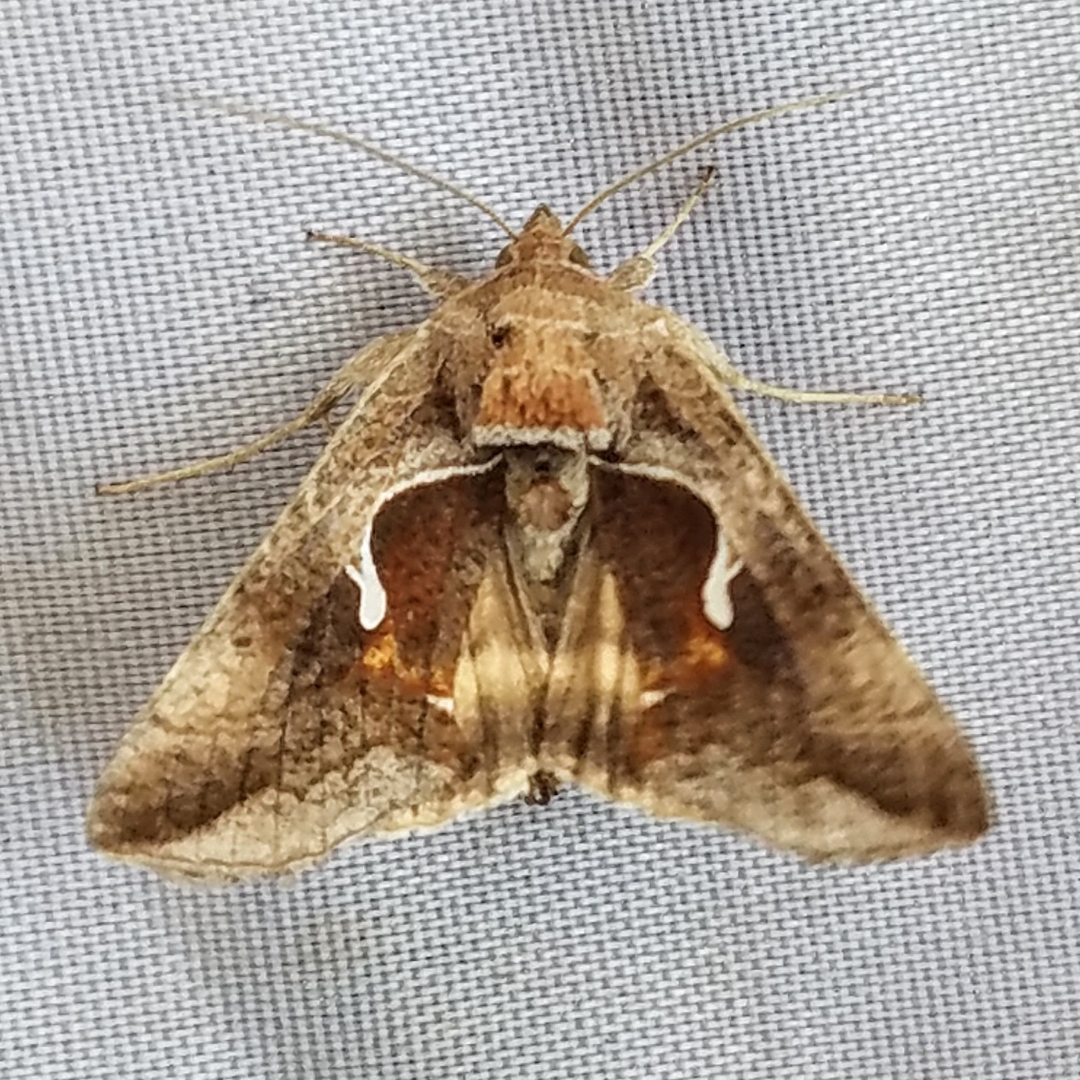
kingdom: Animalia
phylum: Arthropoda
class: Insecta
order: Lepidoptera
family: Noctuidae
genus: Anagrapha
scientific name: Anagrapha falcifera
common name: Celery looper
